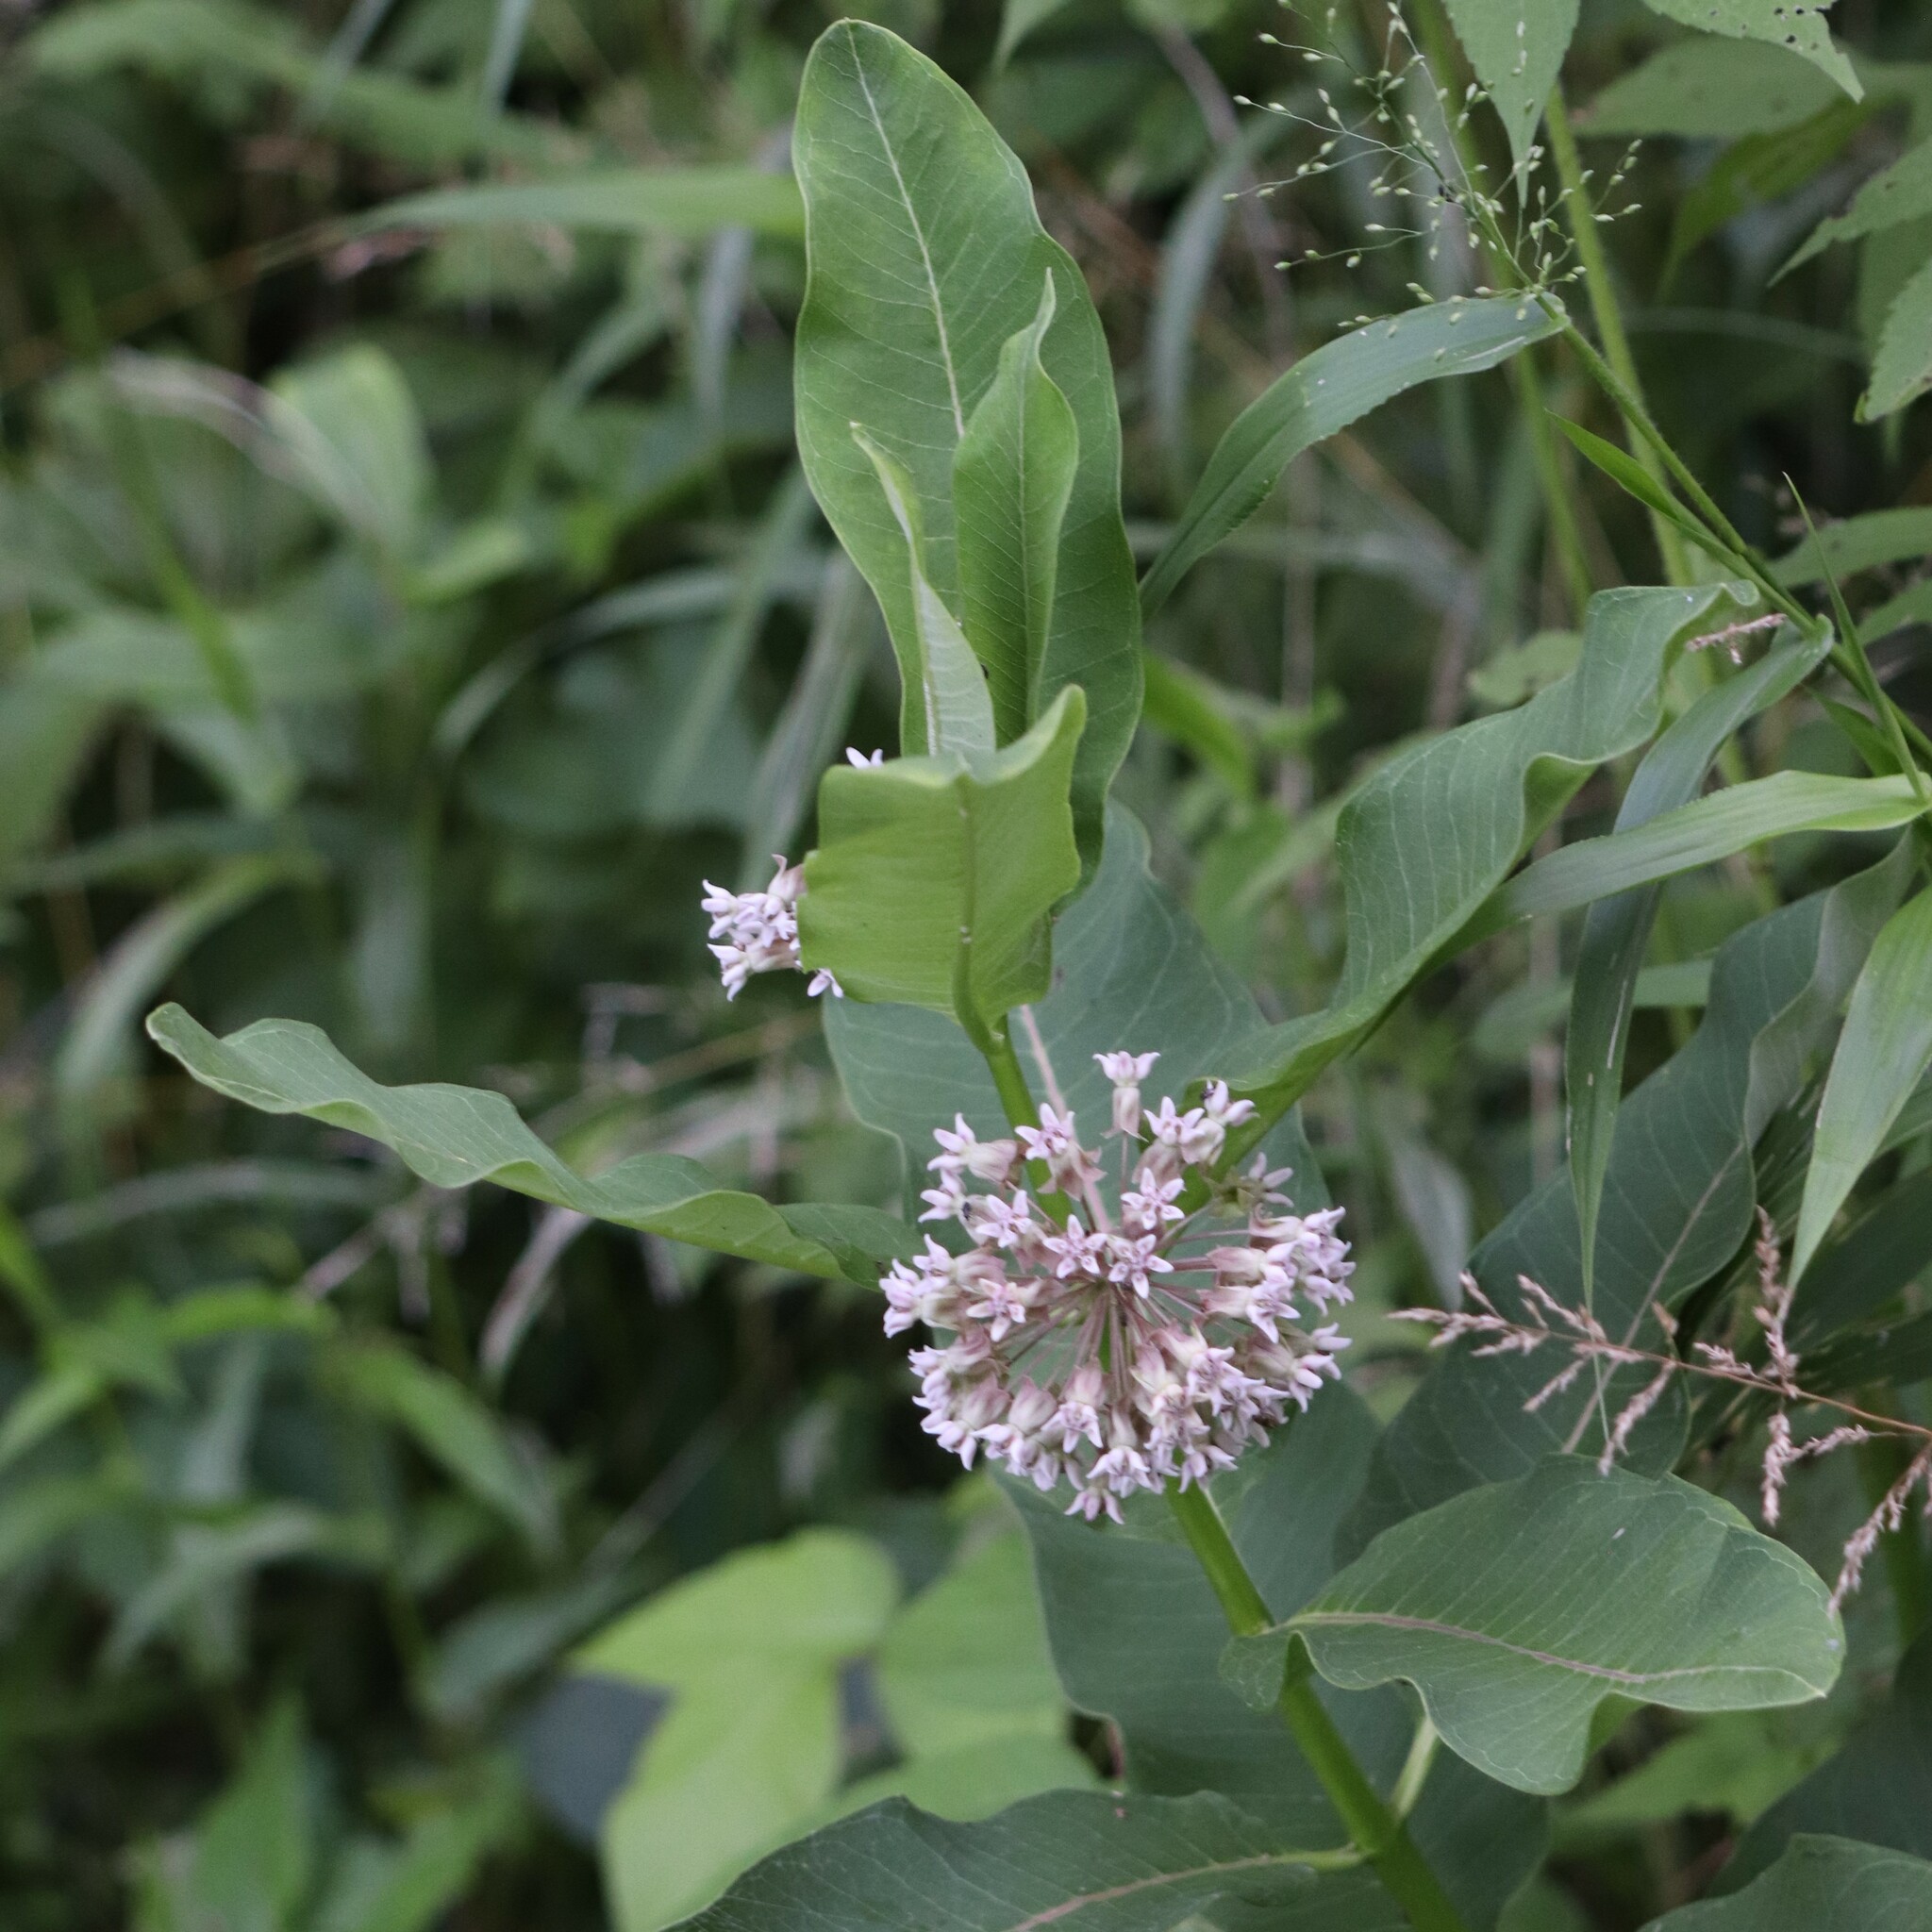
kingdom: Plantae
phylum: Tracheophyta
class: Magnoliopsida
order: Gentianales
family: Apocynaceae
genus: Asclepias
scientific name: Asclepias syriaca
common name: Common milkweed
